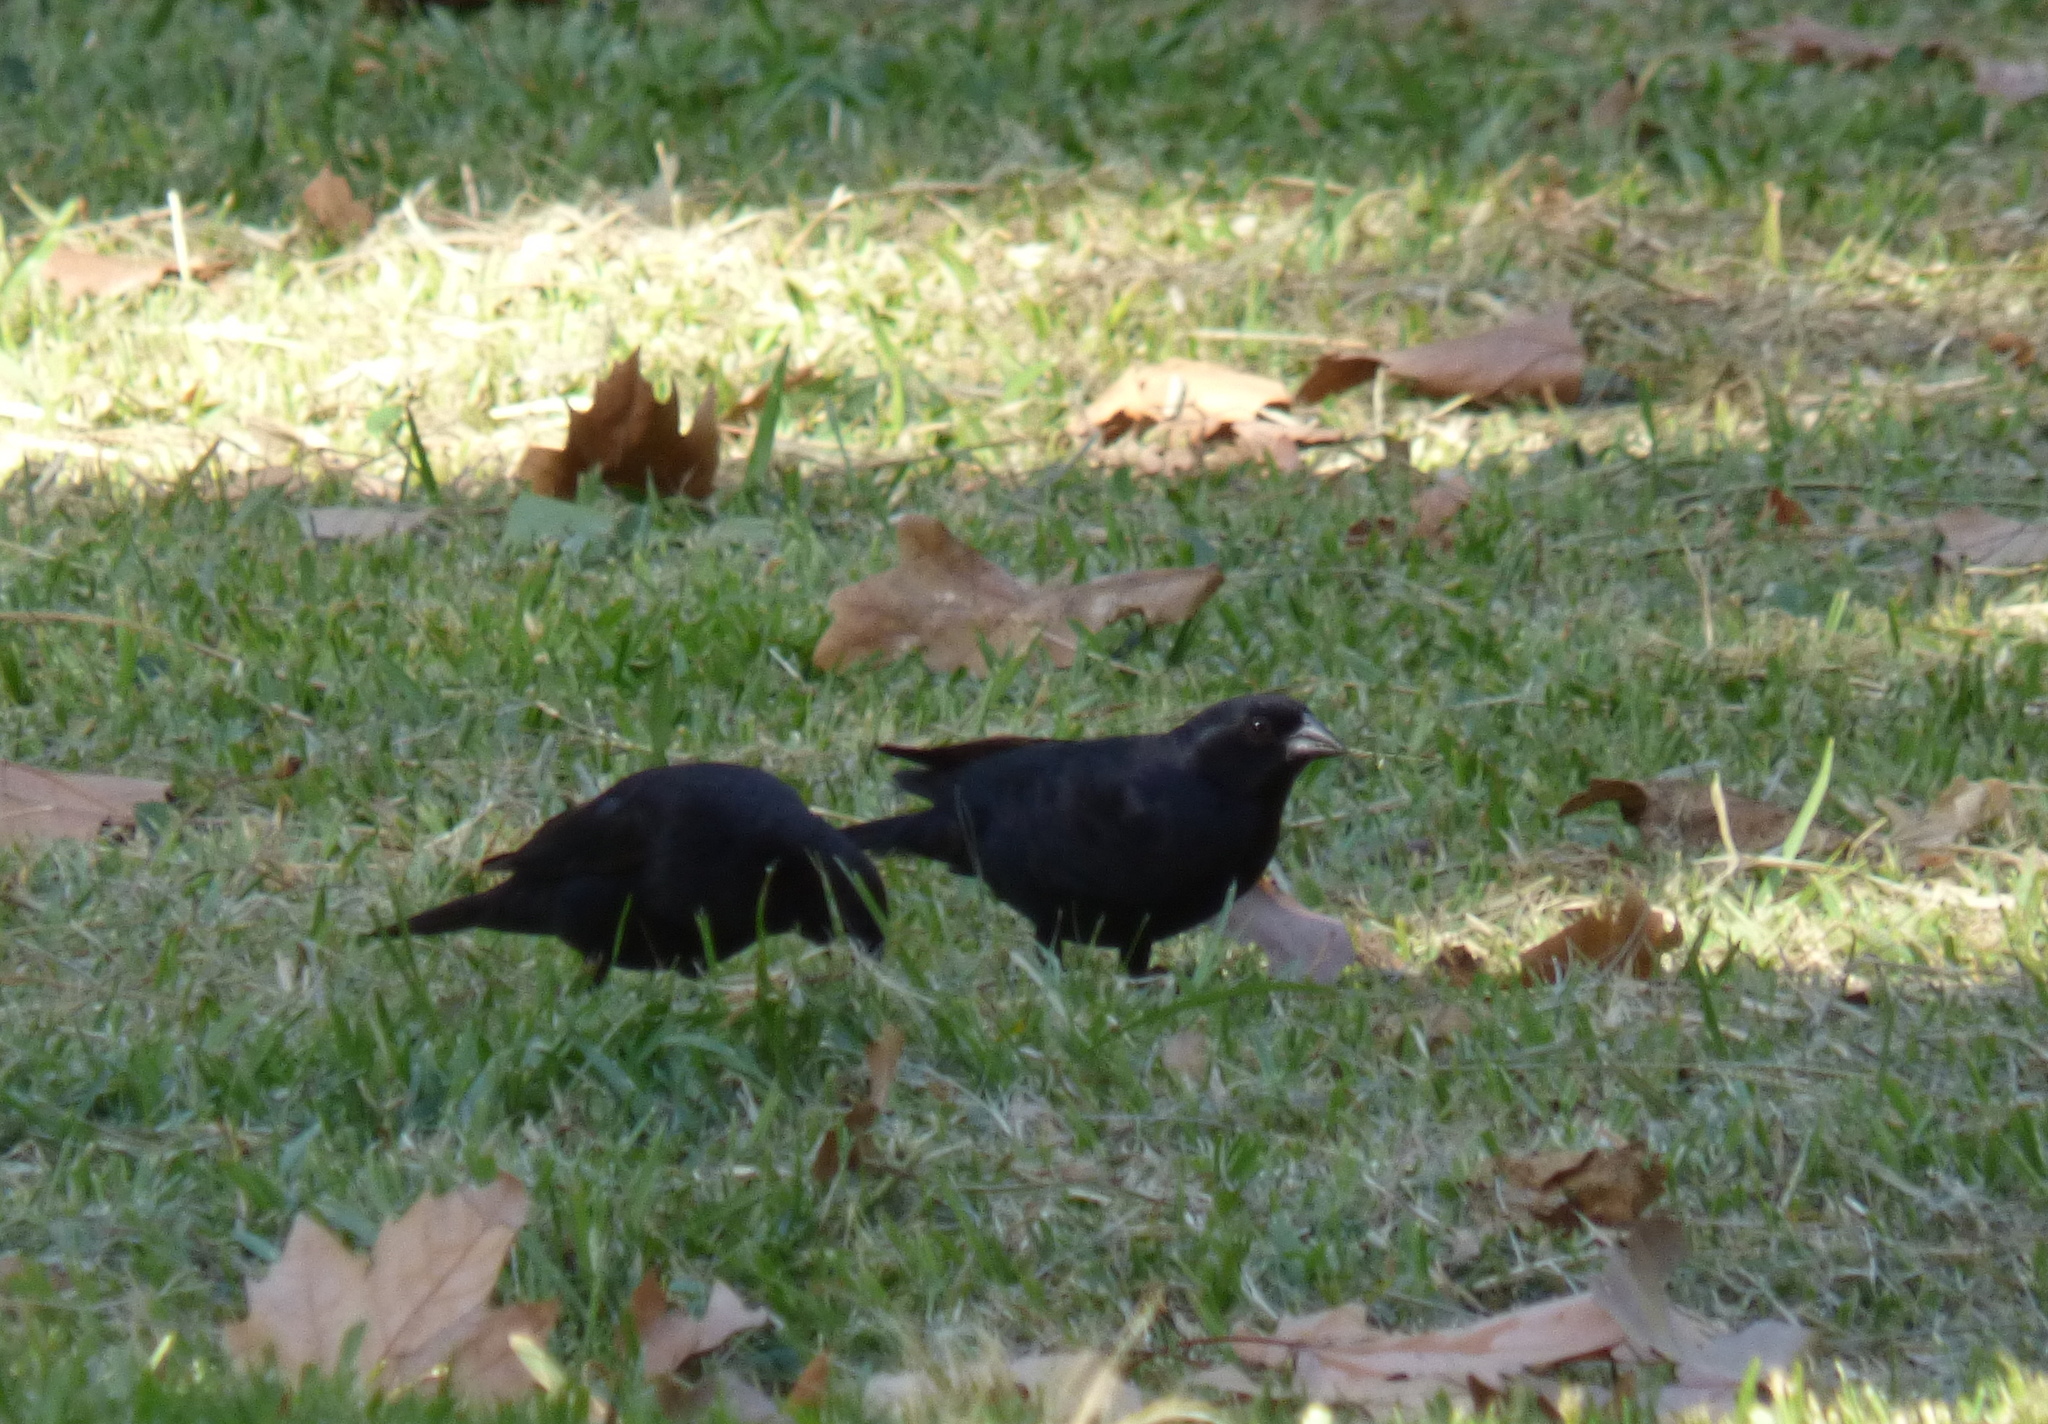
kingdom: Animalia
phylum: Chordata
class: Aves
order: Passeriformes
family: Icteridae
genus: Molothrus
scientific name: Molothrus rufoaxillaris
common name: Screaming cowbird
